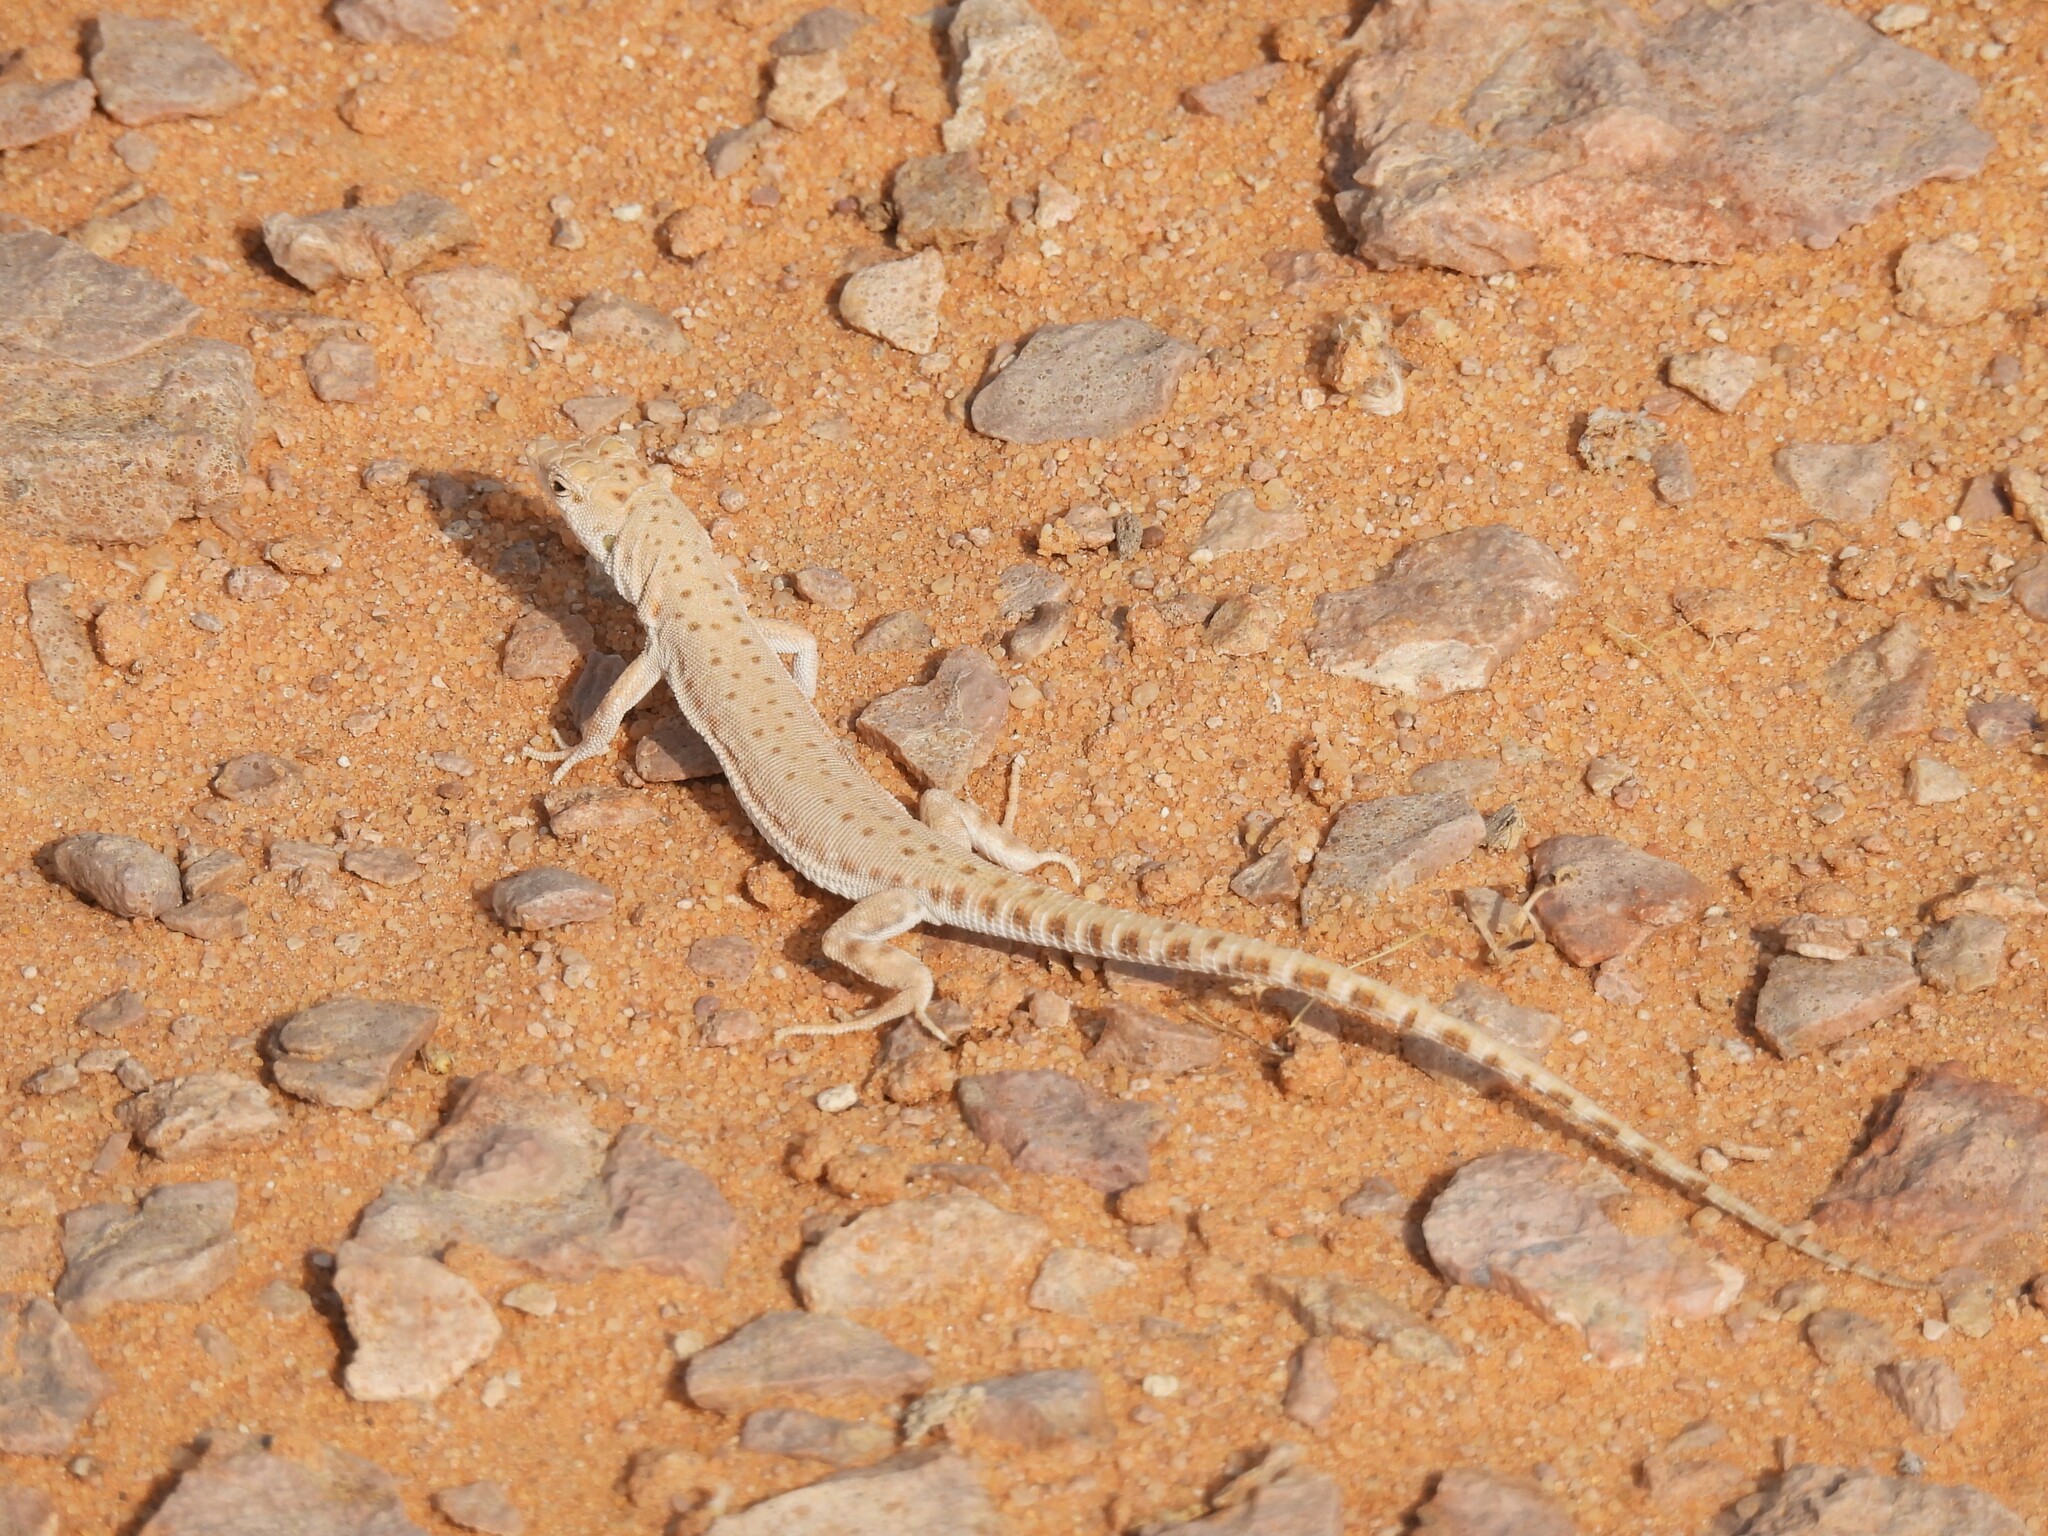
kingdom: Animalia
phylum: Chordata
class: Squamata
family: Lacertidae
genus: Mesalina
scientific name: Mesalina brevirostris
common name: Blanford's short-nosed desert lizard
